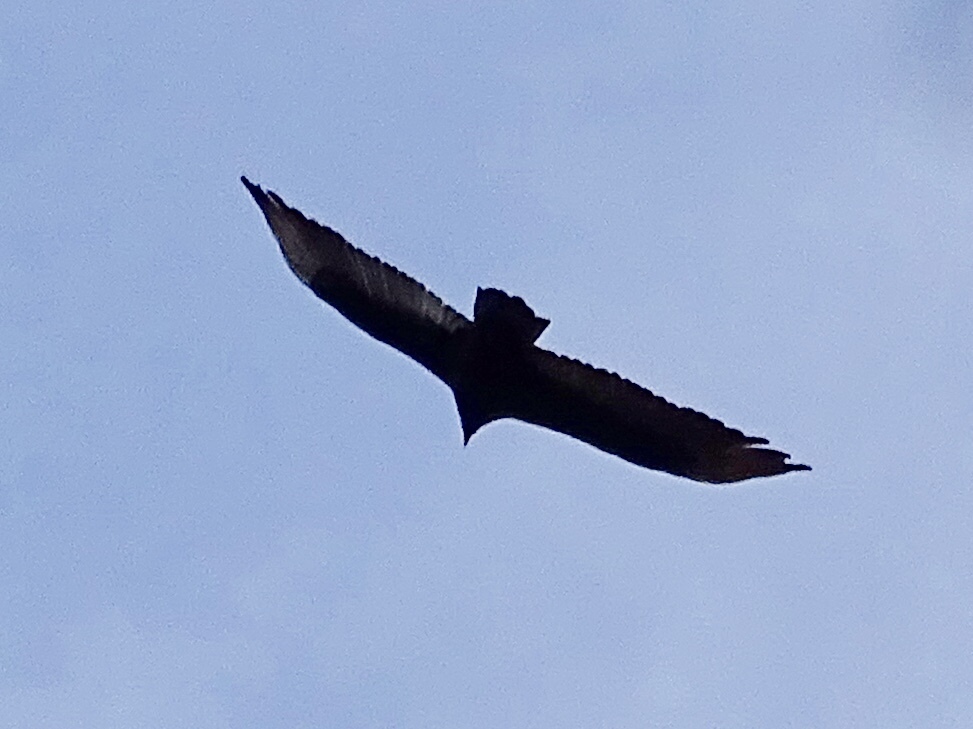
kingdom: Animalia
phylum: Chordata
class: Aves
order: Accipitriformes
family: Cathartidae
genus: Cathartes
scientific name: Cathartes aura
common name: Turkey vulture
